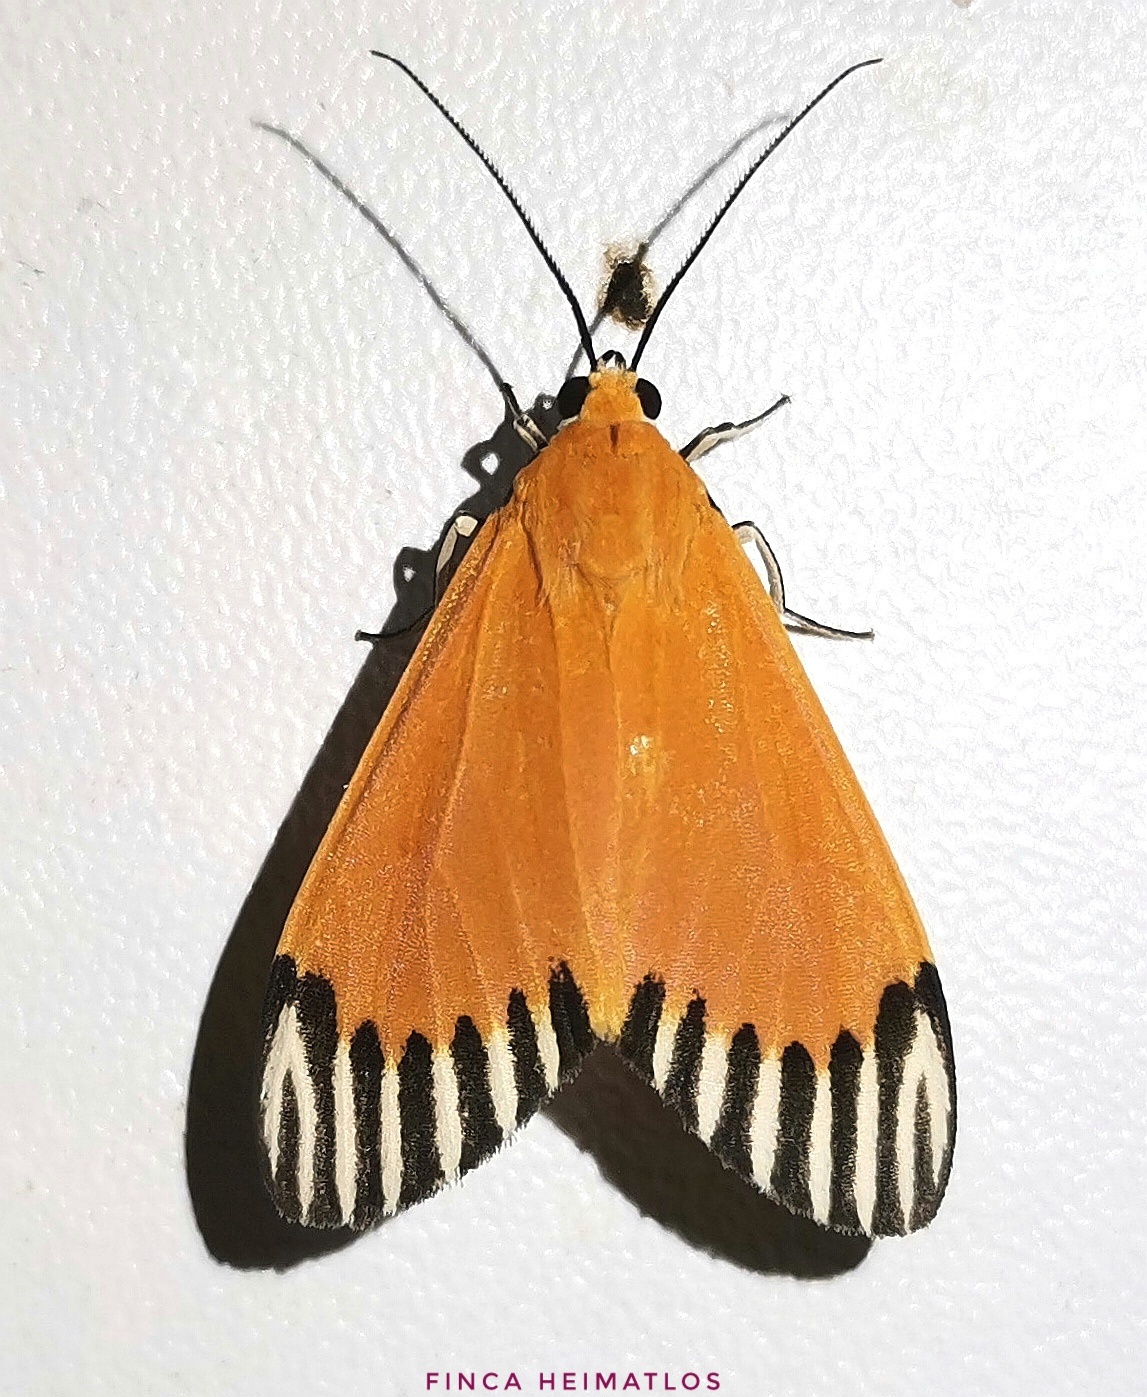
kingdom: Animalia
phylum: Arthropoda
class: Insecta
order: Lepidoptera
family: Erebidae
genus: Uranophora
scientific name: Uranophora walkeri
